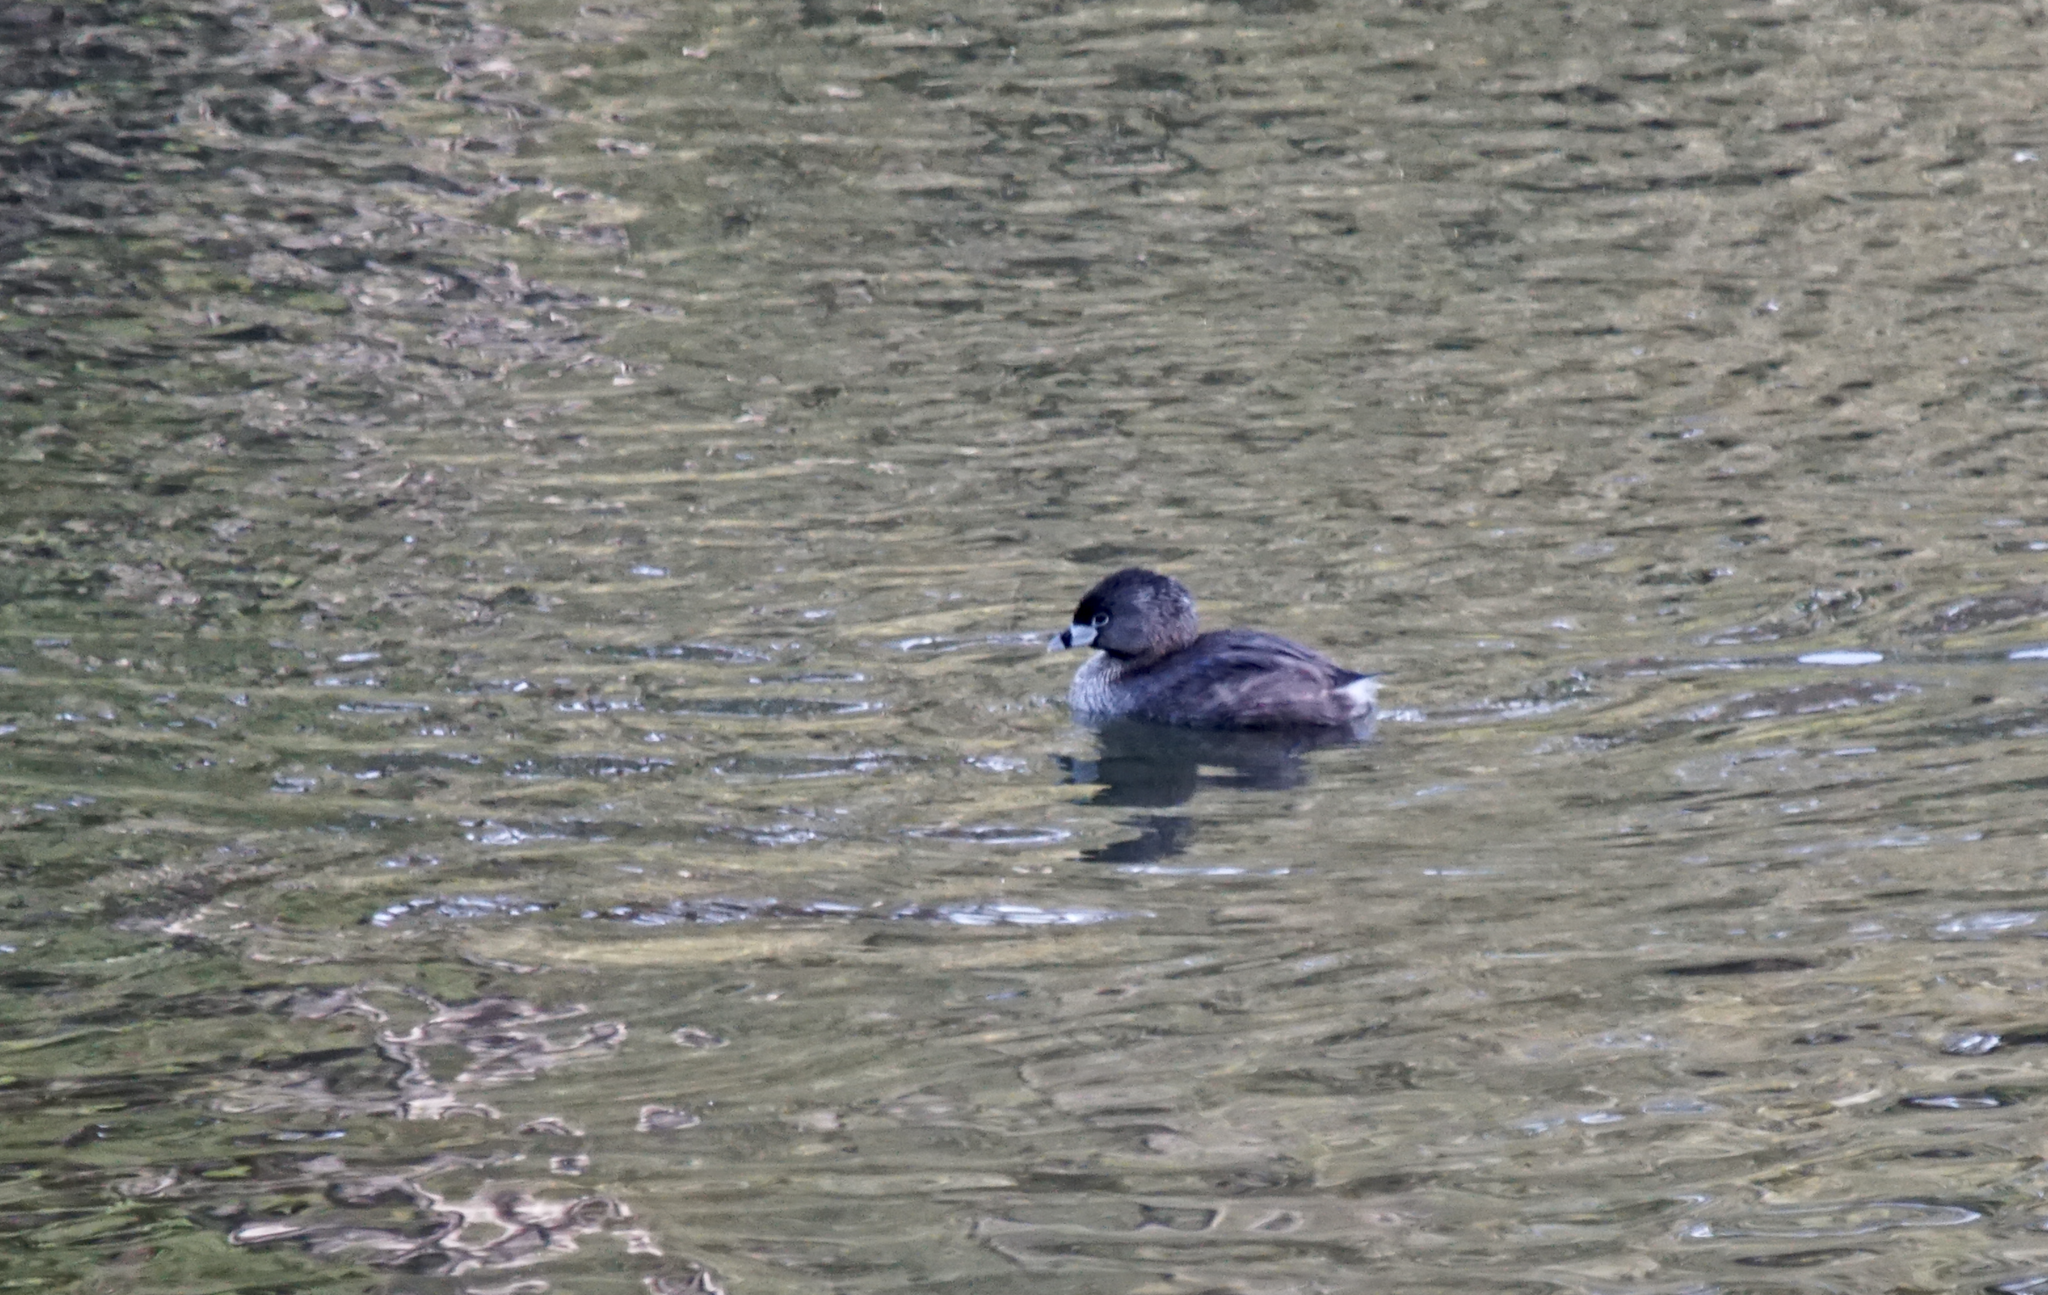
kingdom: Animalia
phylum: Chordata
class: Aves
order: Podicipediformes
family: Podicipedidae
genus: Podilymbus
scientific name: Podilymbus podiceps
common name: Pied-billed grebe
